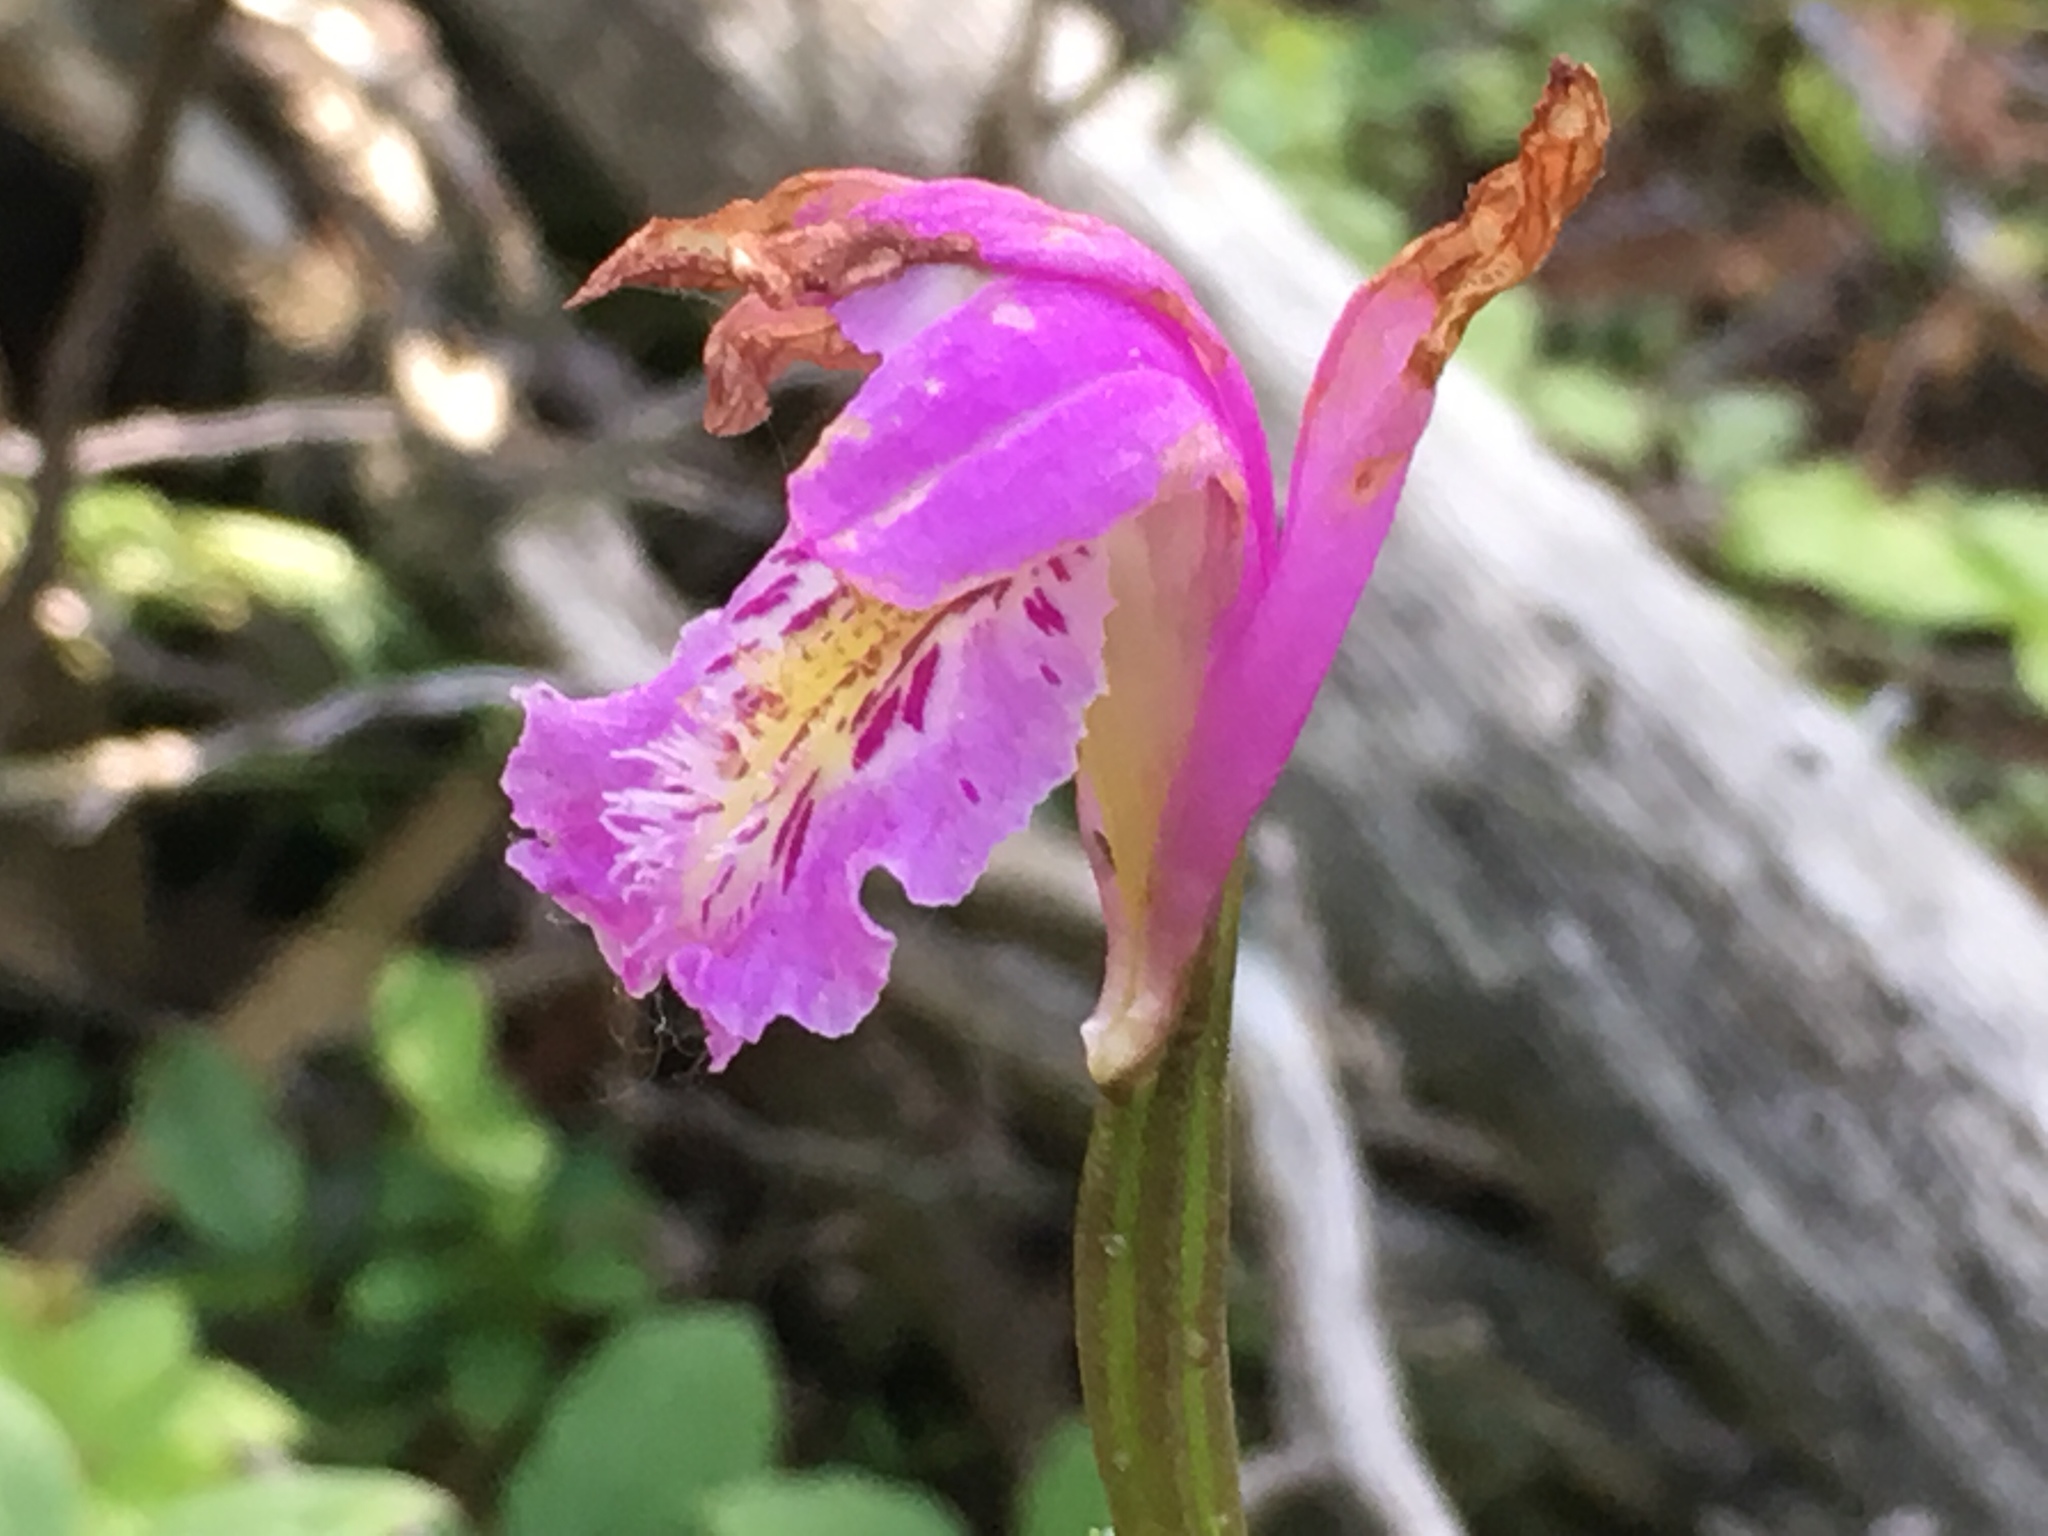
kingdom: Plantae
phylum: Tracheophyta
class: Liliopsida
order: Asparagales
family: Orchidaceae
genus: Arethusa
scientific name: Arethusa bulbosa
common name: Arethusa
